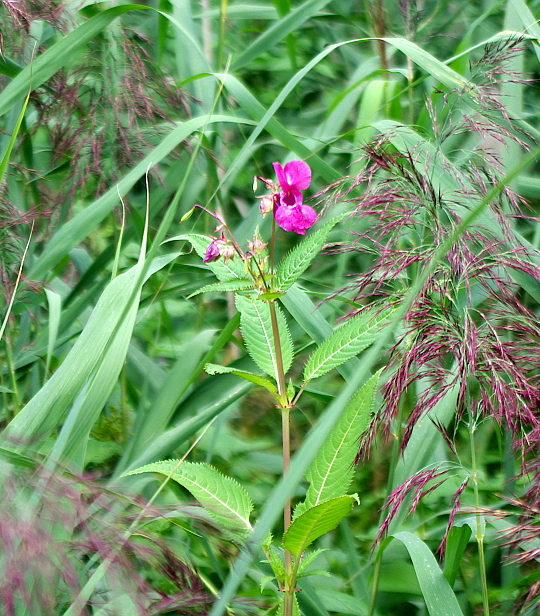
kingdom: Plantae
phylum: Tracheophyta
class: Magnoliopsida
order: Ericales
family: Balsaminaceae
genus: Impatiens
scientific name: Impatiens glandulifera
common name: Himalayan balsam
